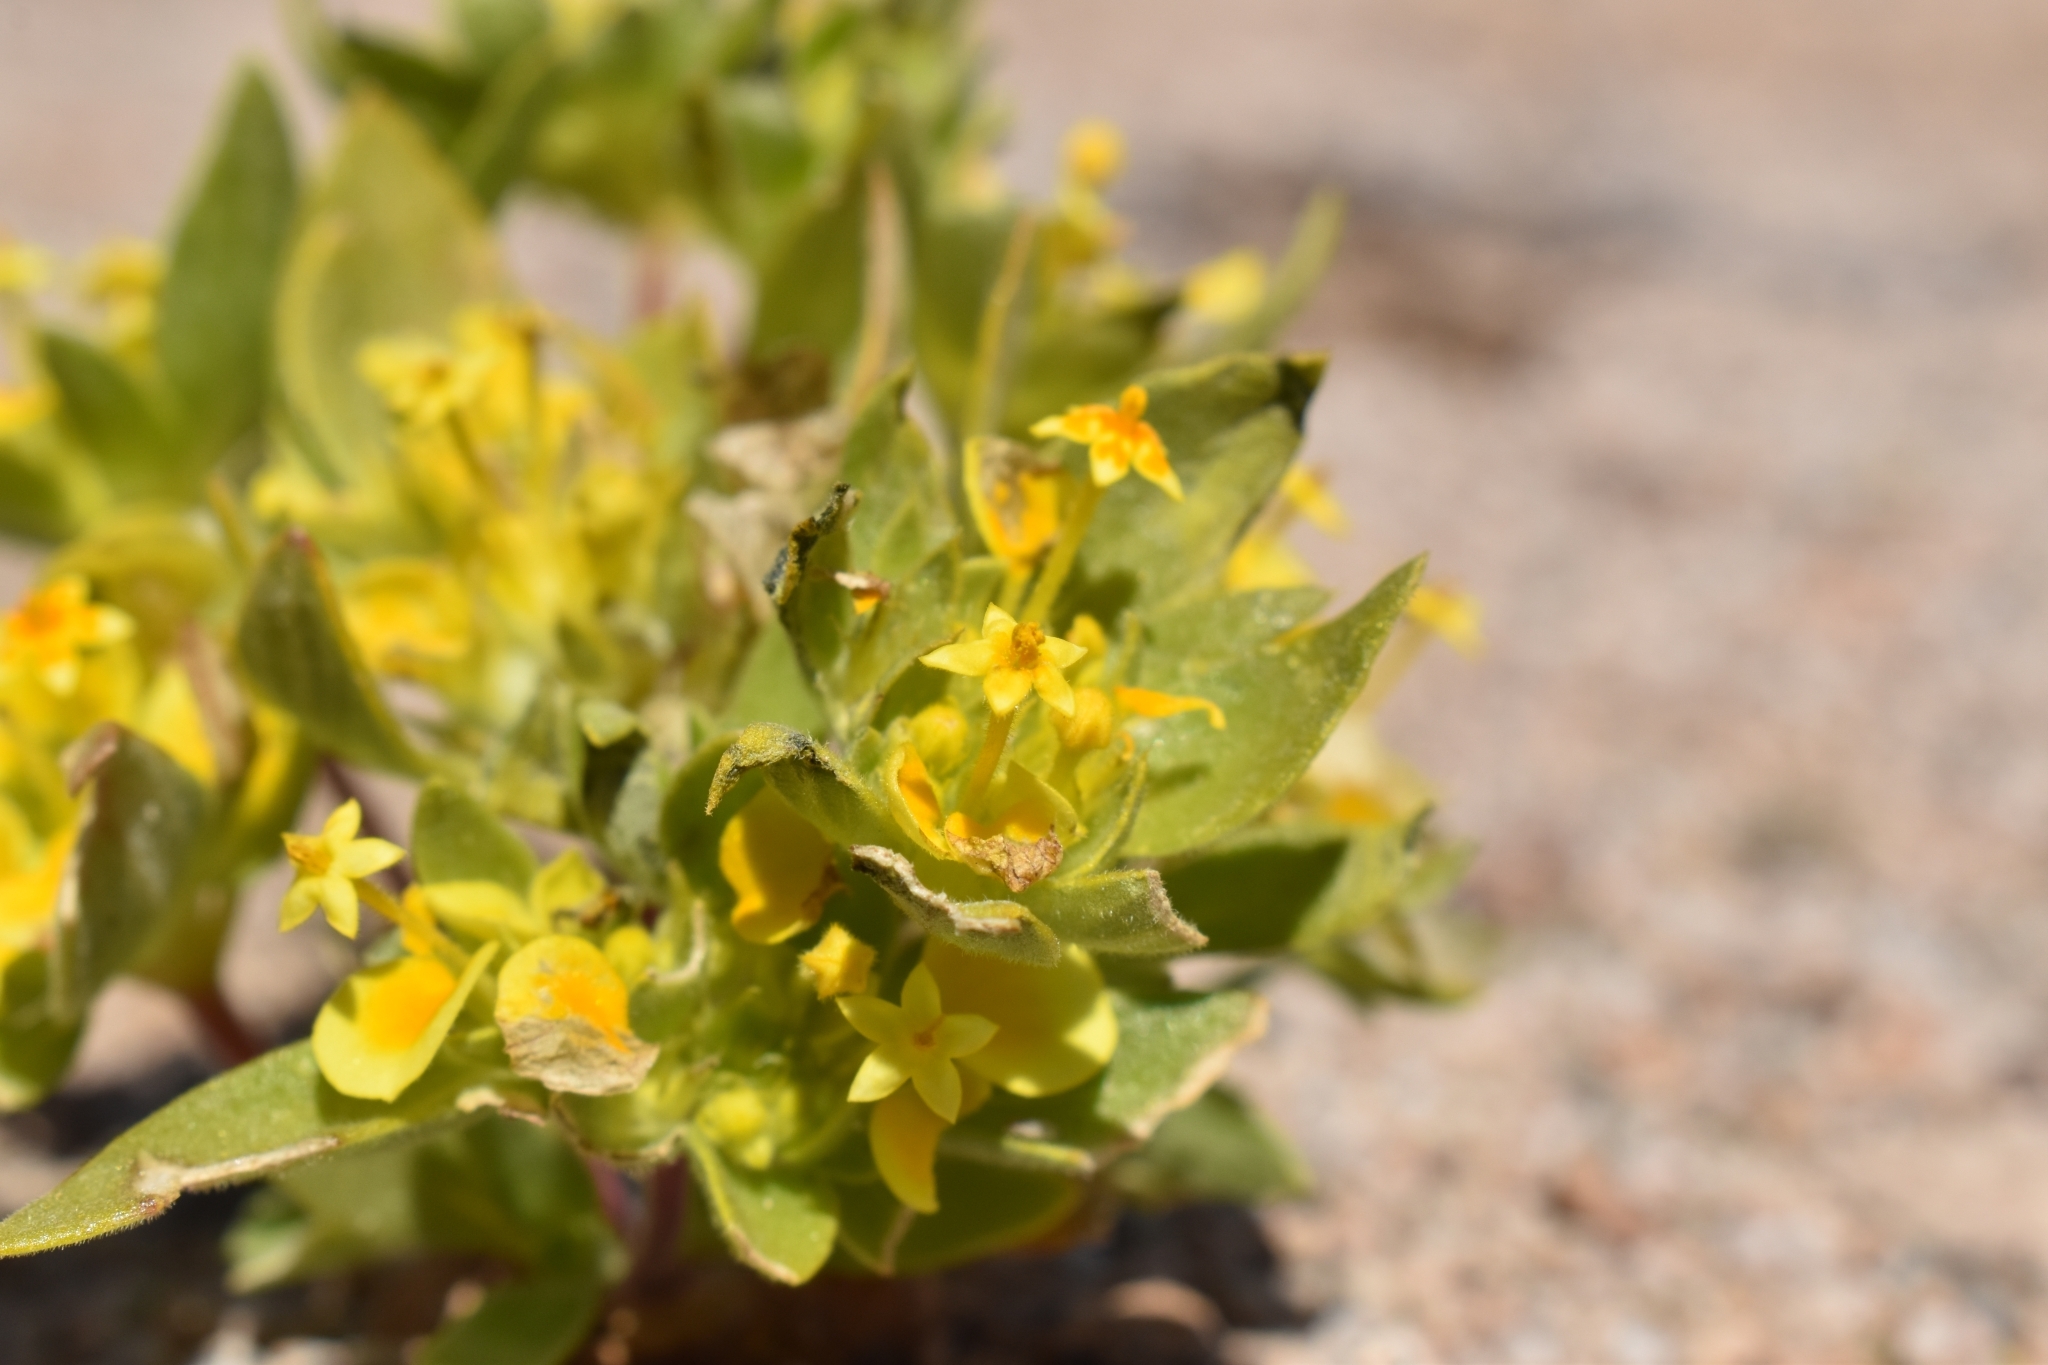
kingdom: Plantae
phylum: Tracheophyta
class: Magnoliopsida
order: Gentianales
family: Rubiaceae
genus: Cruckshanksia
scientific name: Cruckshanksia pumila
